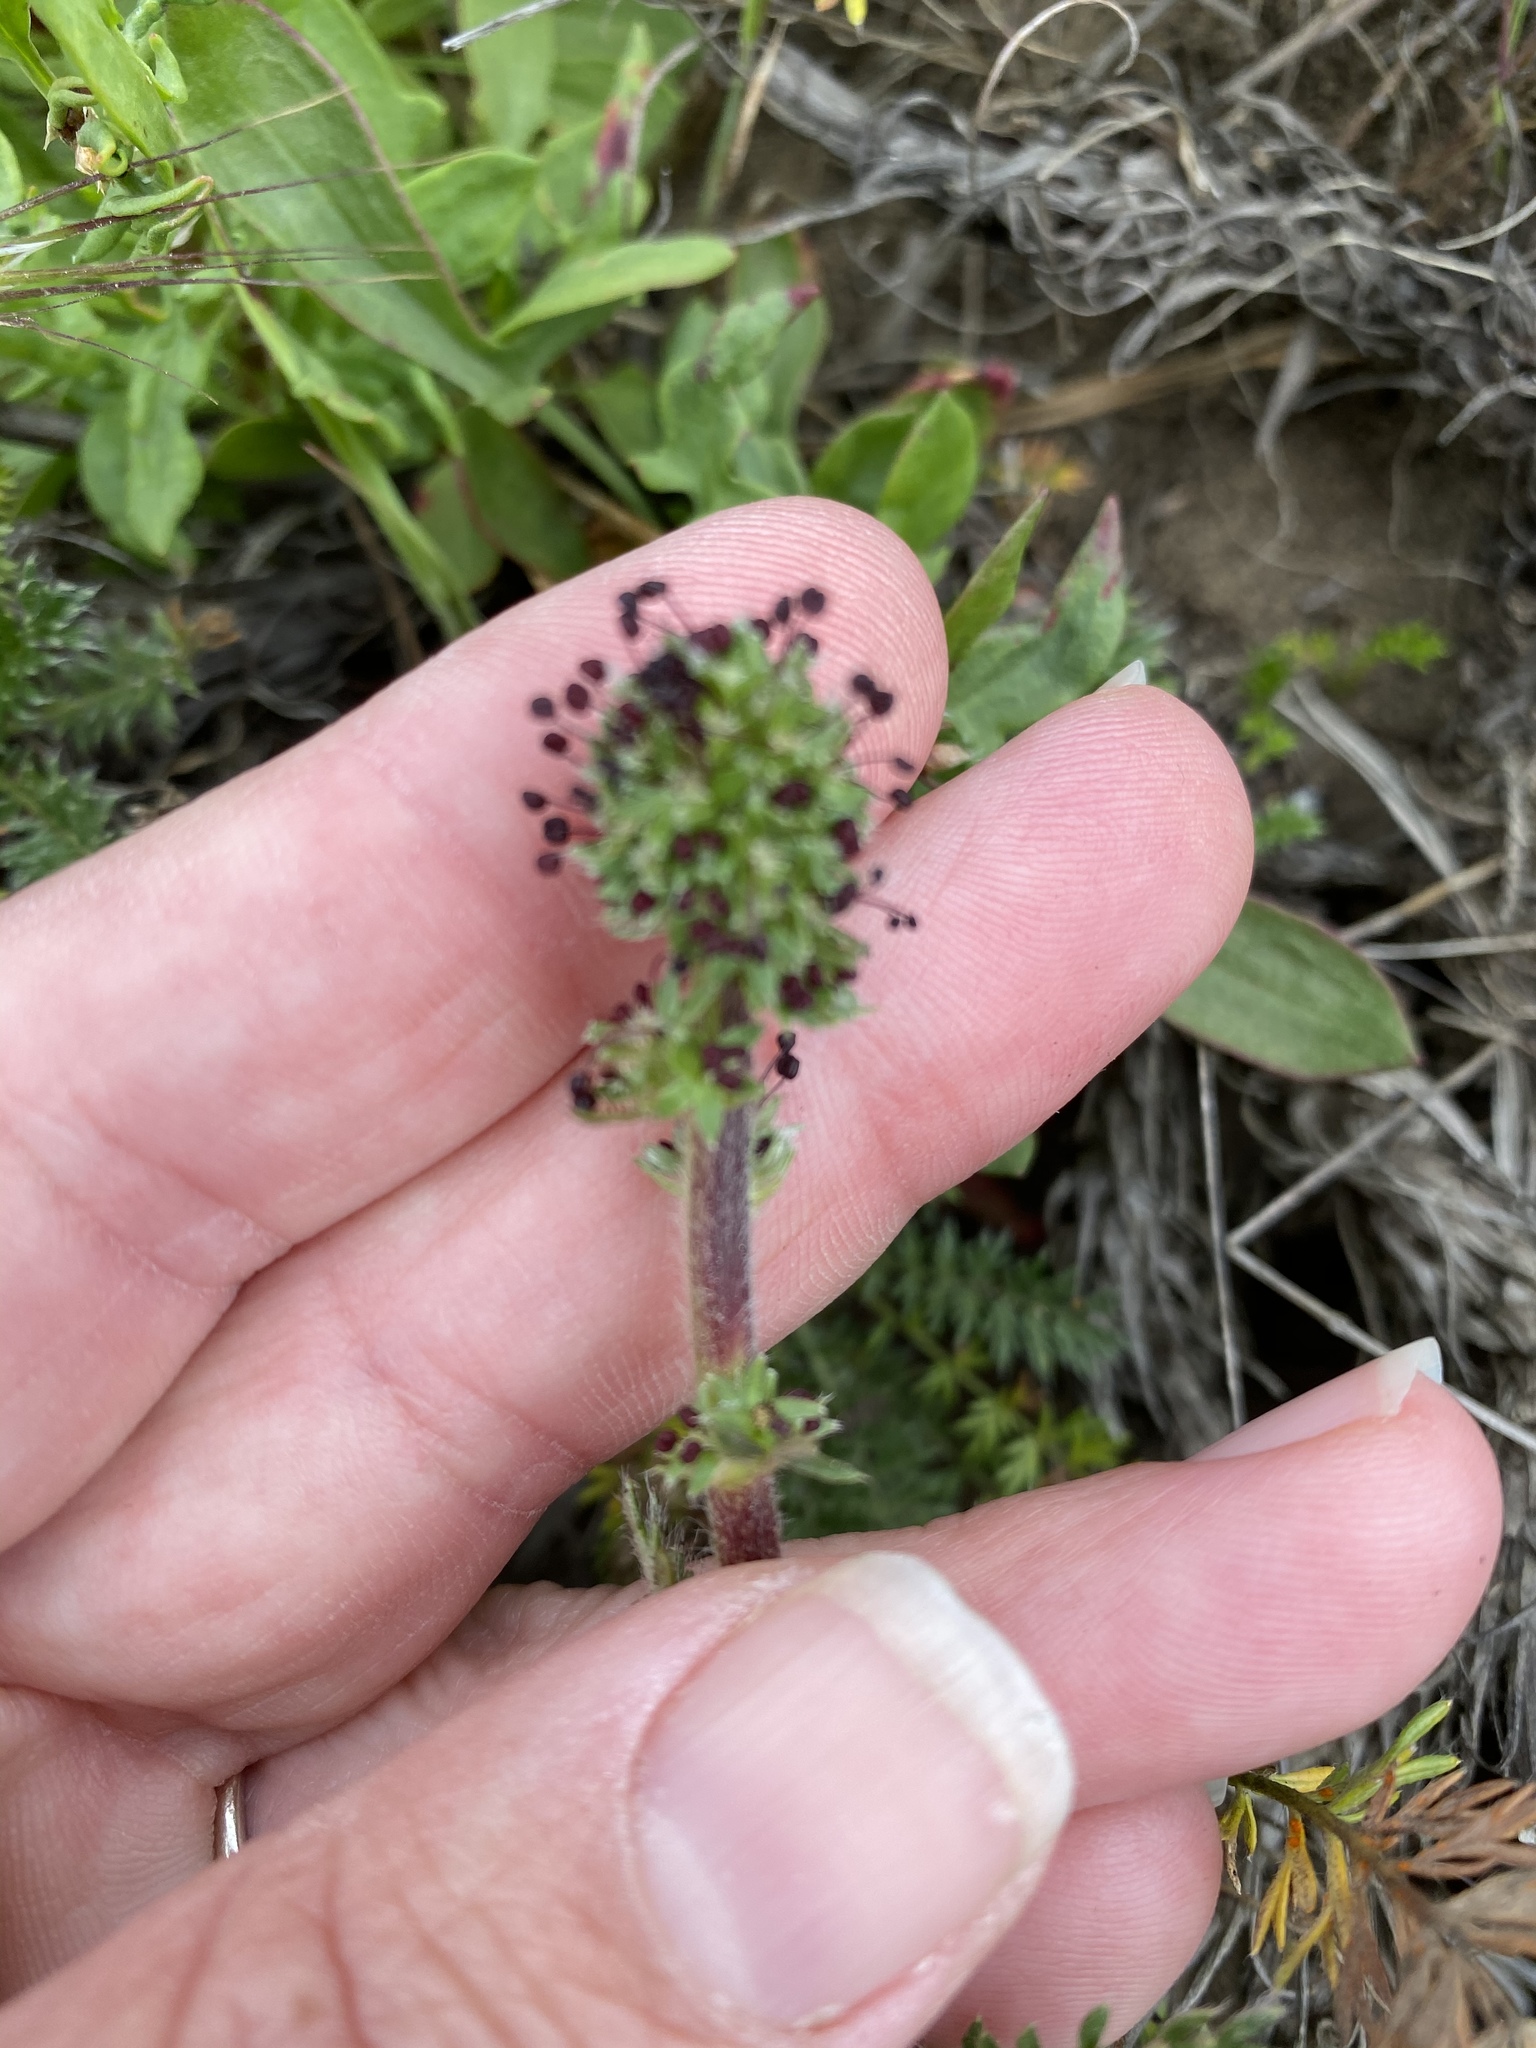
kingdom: Plantae
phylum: Tracheophyta
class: Magnoliopsida
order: Rosales
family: Rosaceae
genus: Acaena
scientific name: Acaena pinnatifida
